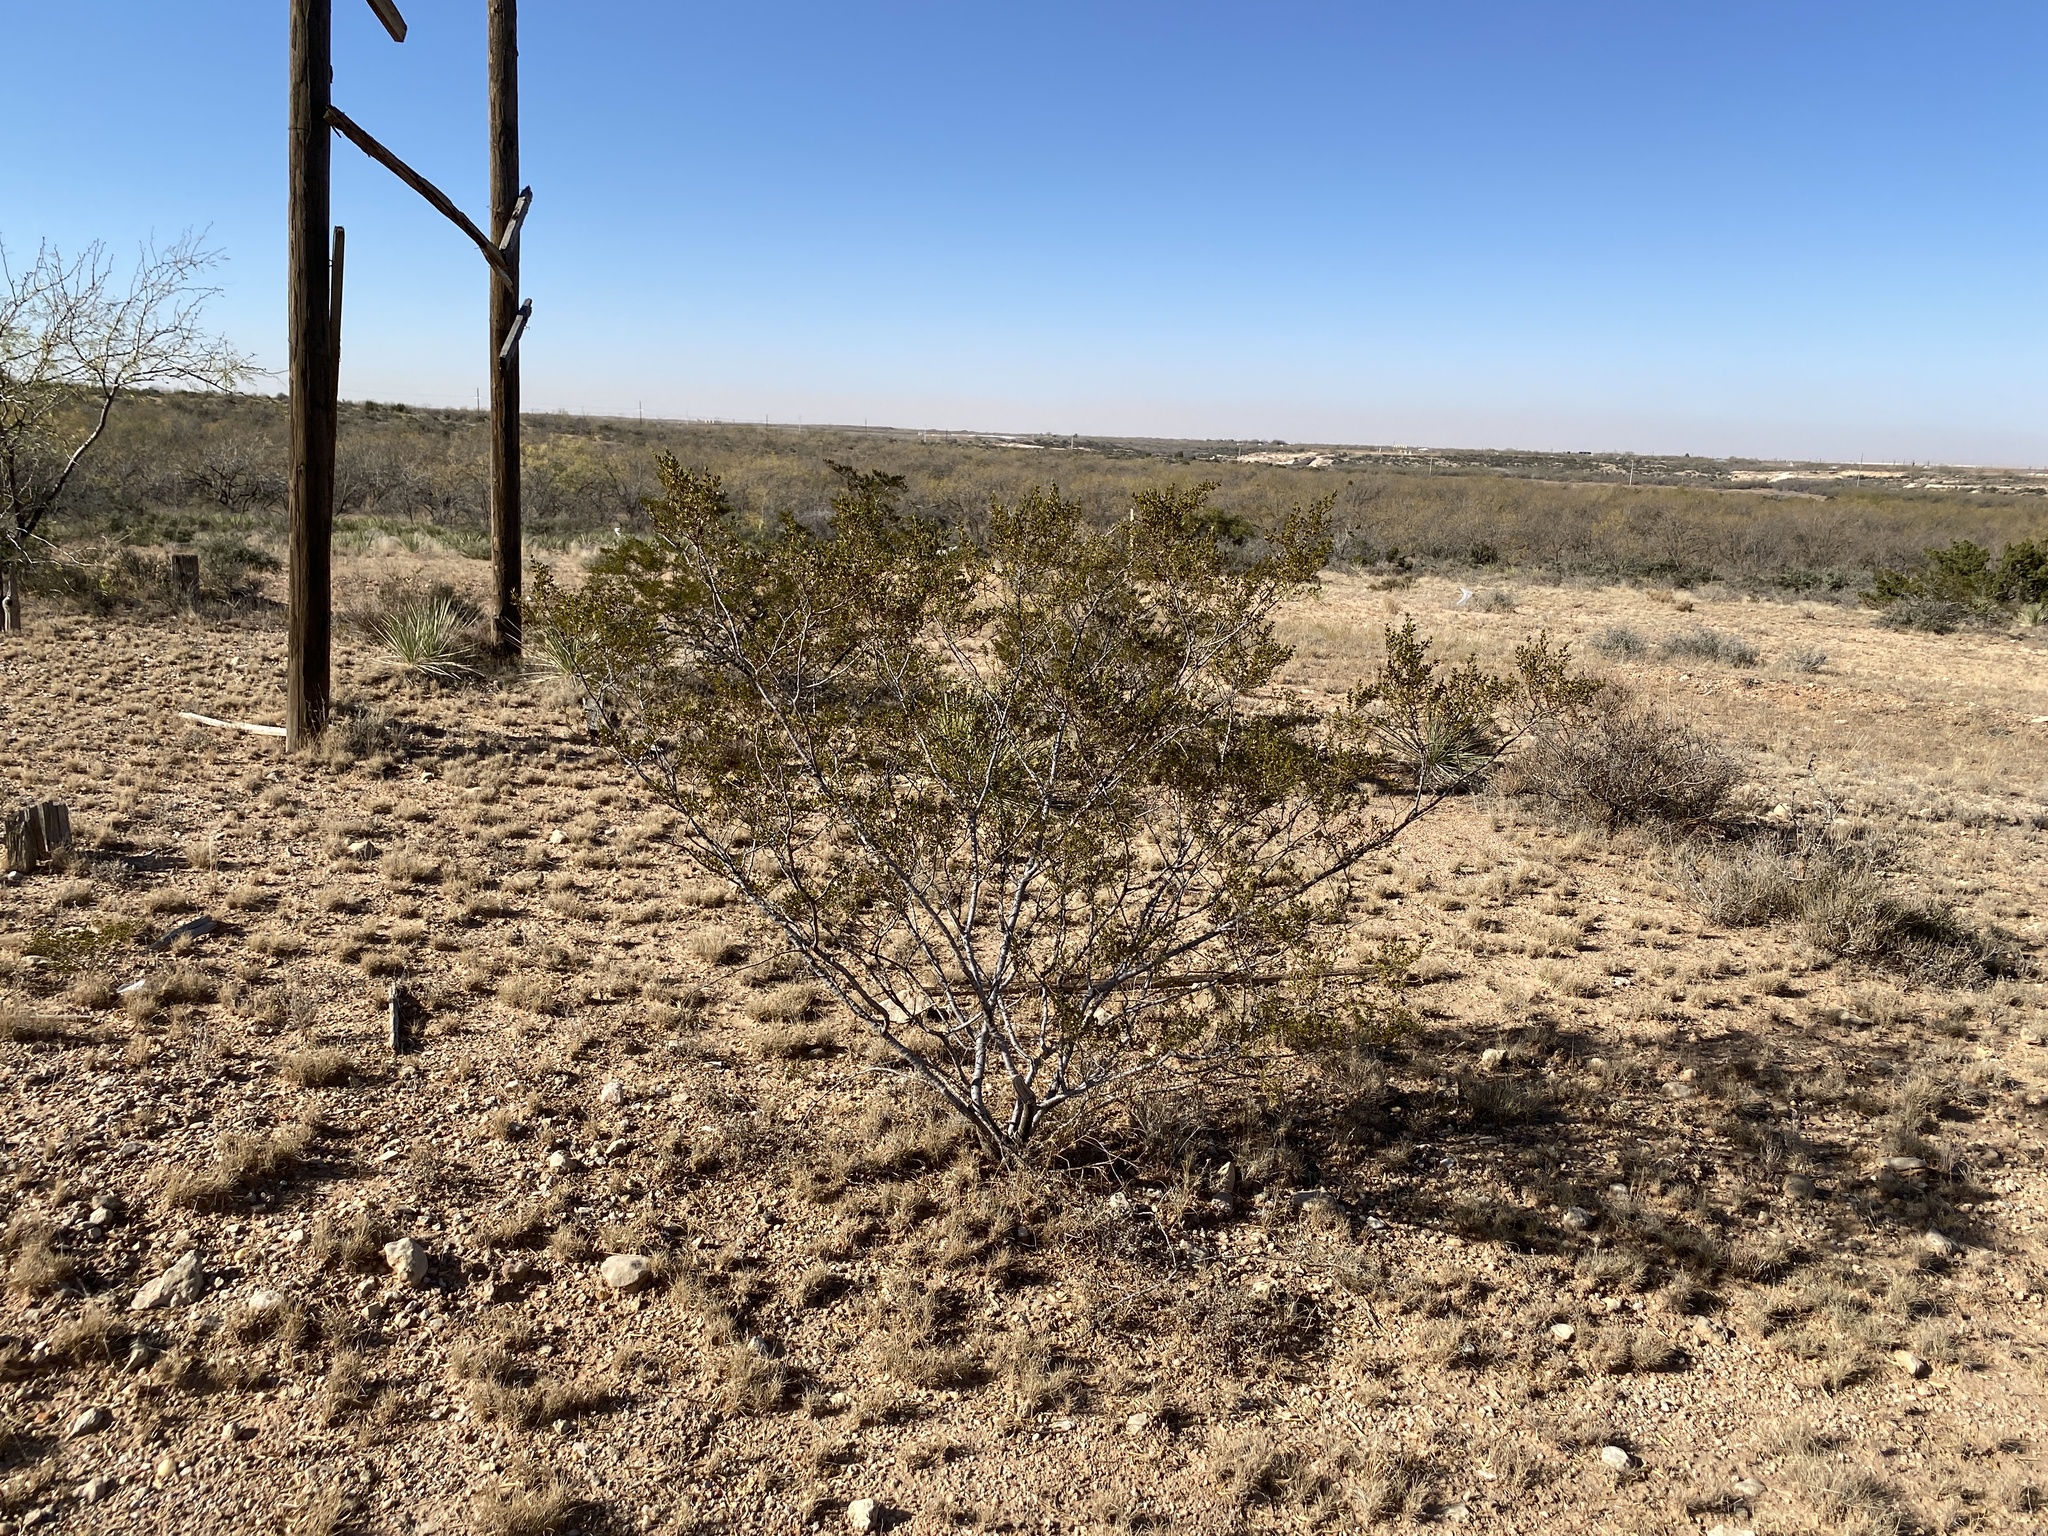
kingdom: Plantae
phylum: Tracheophyta
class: Magnoliopsida
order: Zygophyllales
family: Zygophyllaceae
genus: Larrea
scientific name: Larrea tridentata
